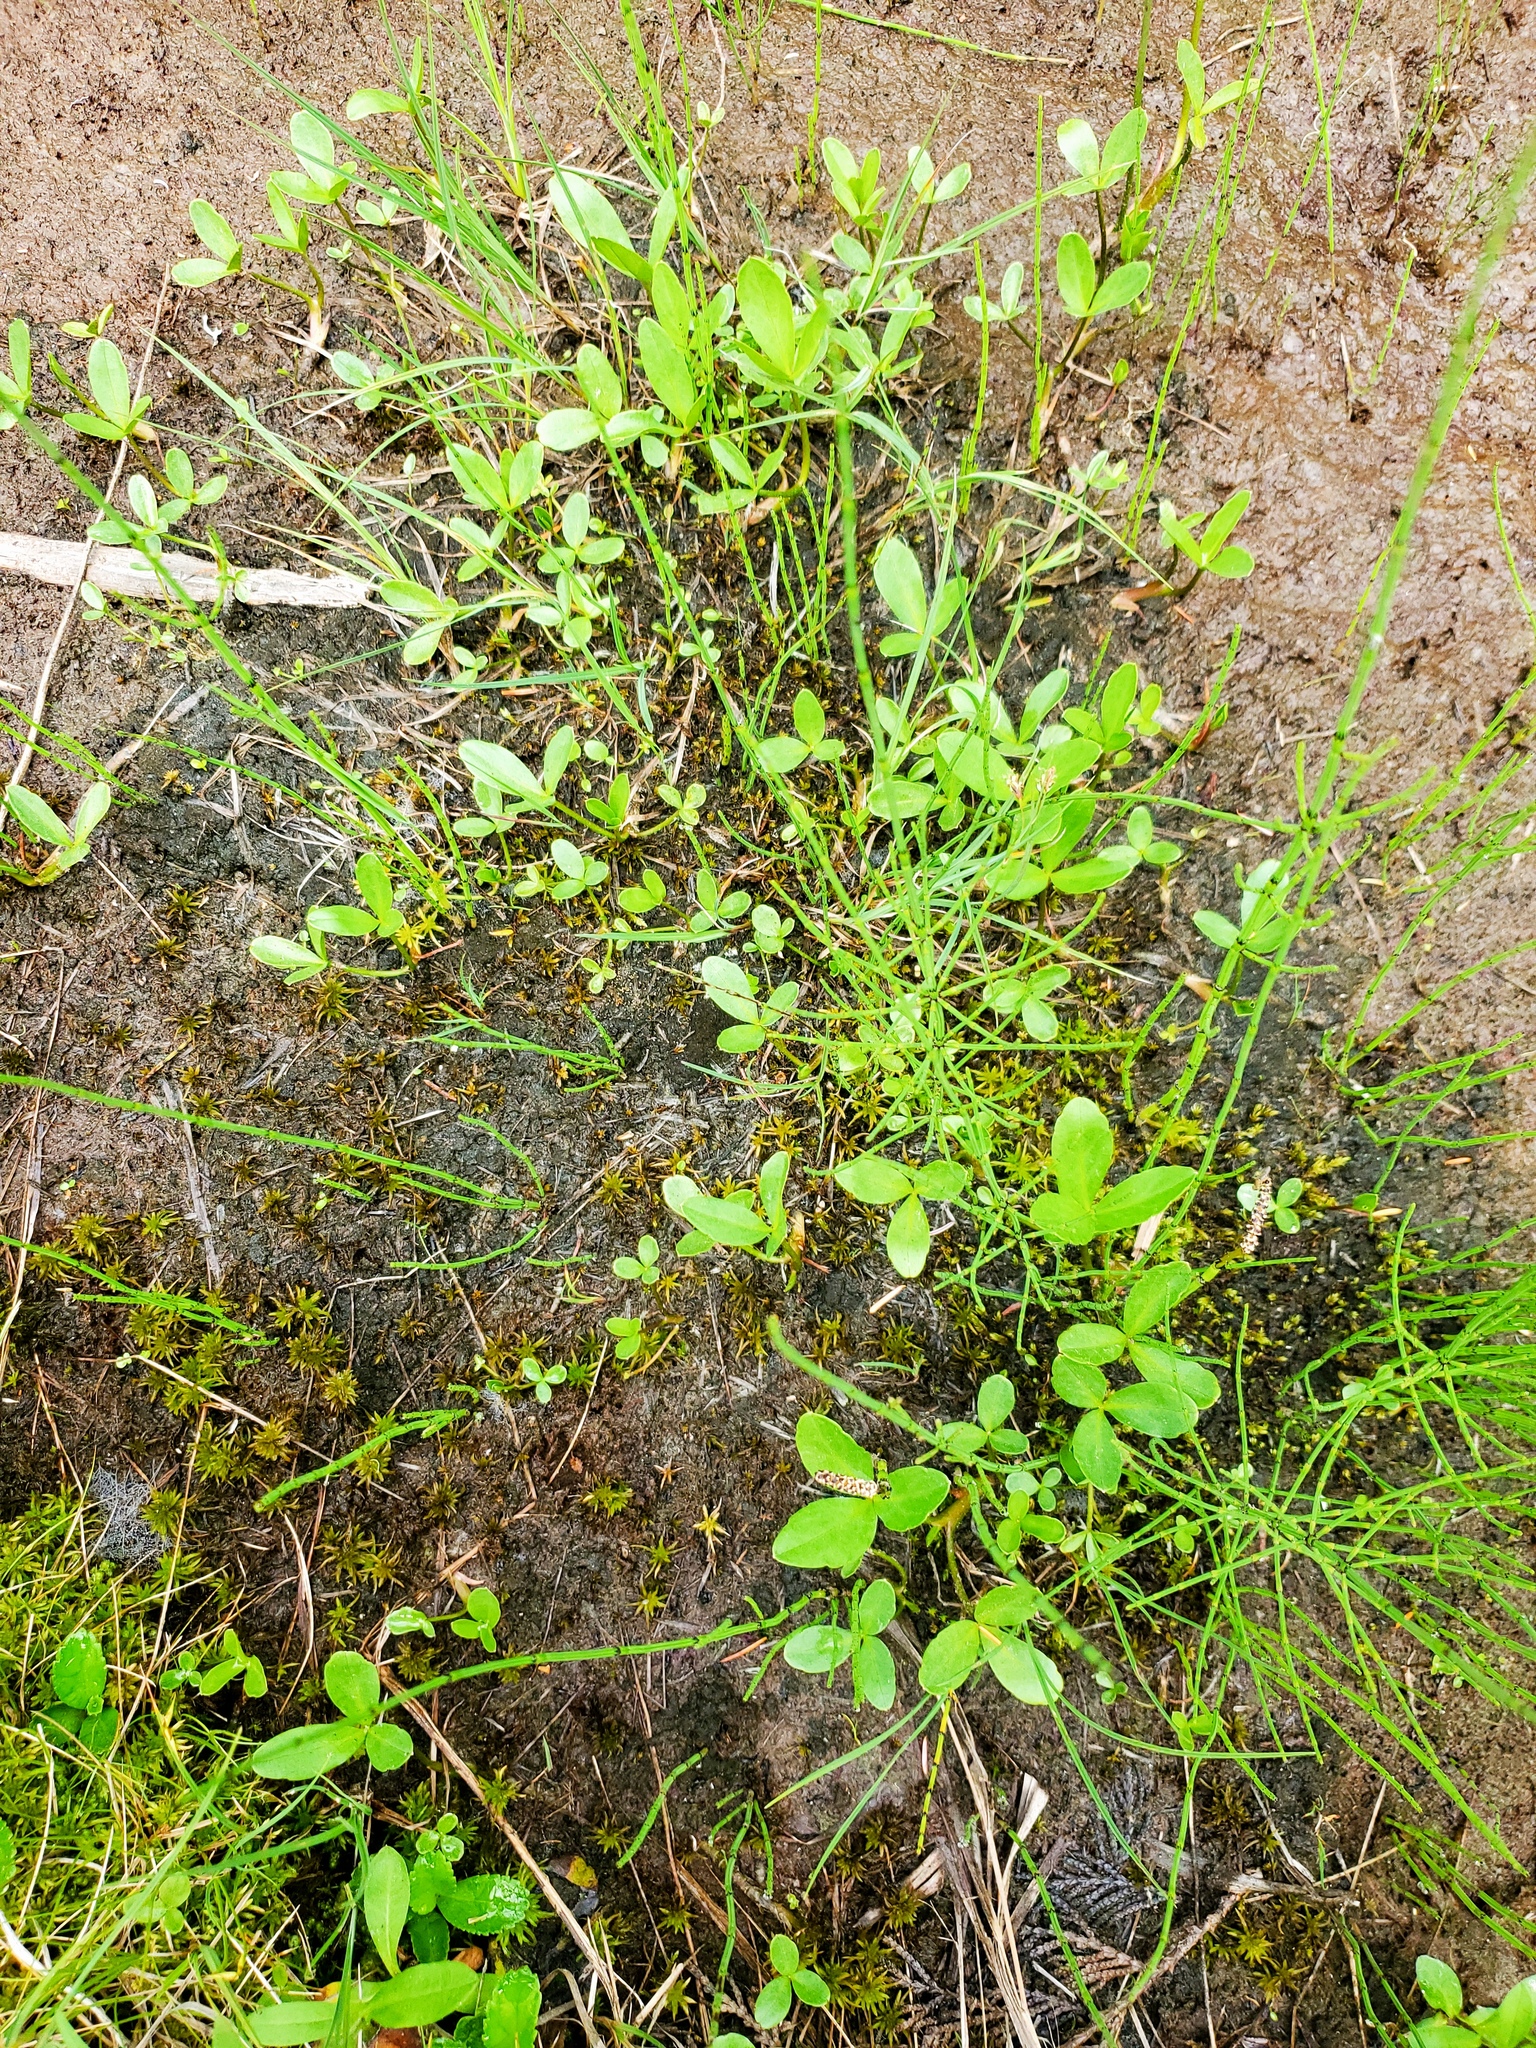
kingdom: Plantae
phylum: Tracheophyta
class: Magnoliopsida
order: Asterales
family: Menyanthaceae
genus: Menyanthes
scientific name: Menyanthes trifoliata
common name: Bogbean
